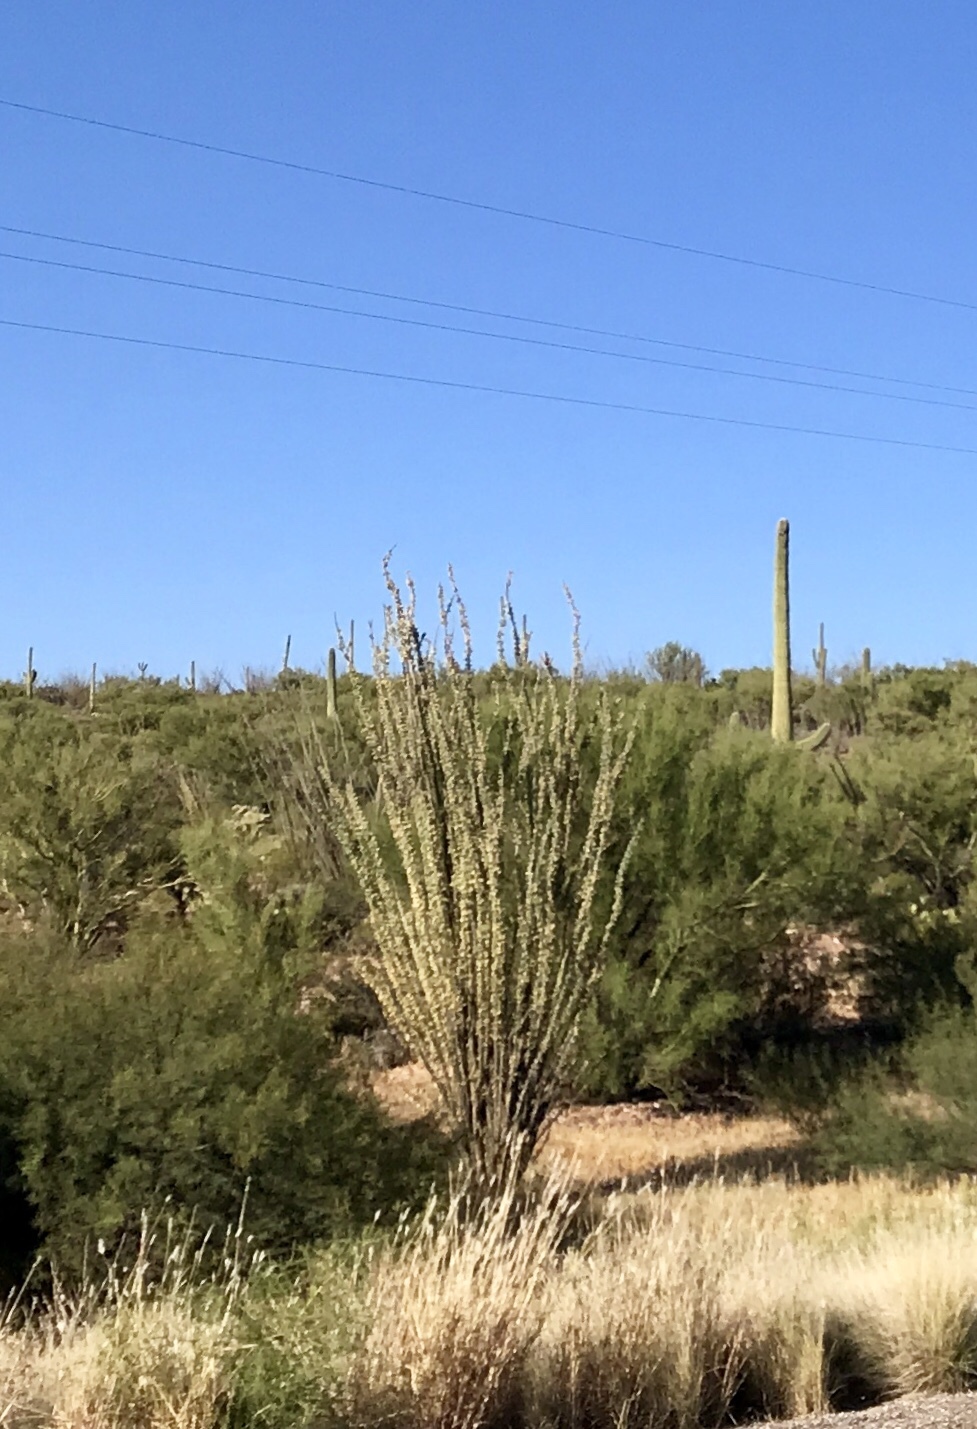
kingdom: Plantae
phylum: Tracheophyta
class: Magnoliopsida
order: Ericales
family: Fouquieriaceae
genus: Fouquieria
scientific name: Fouquieria splendens
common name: Vine-cactus
